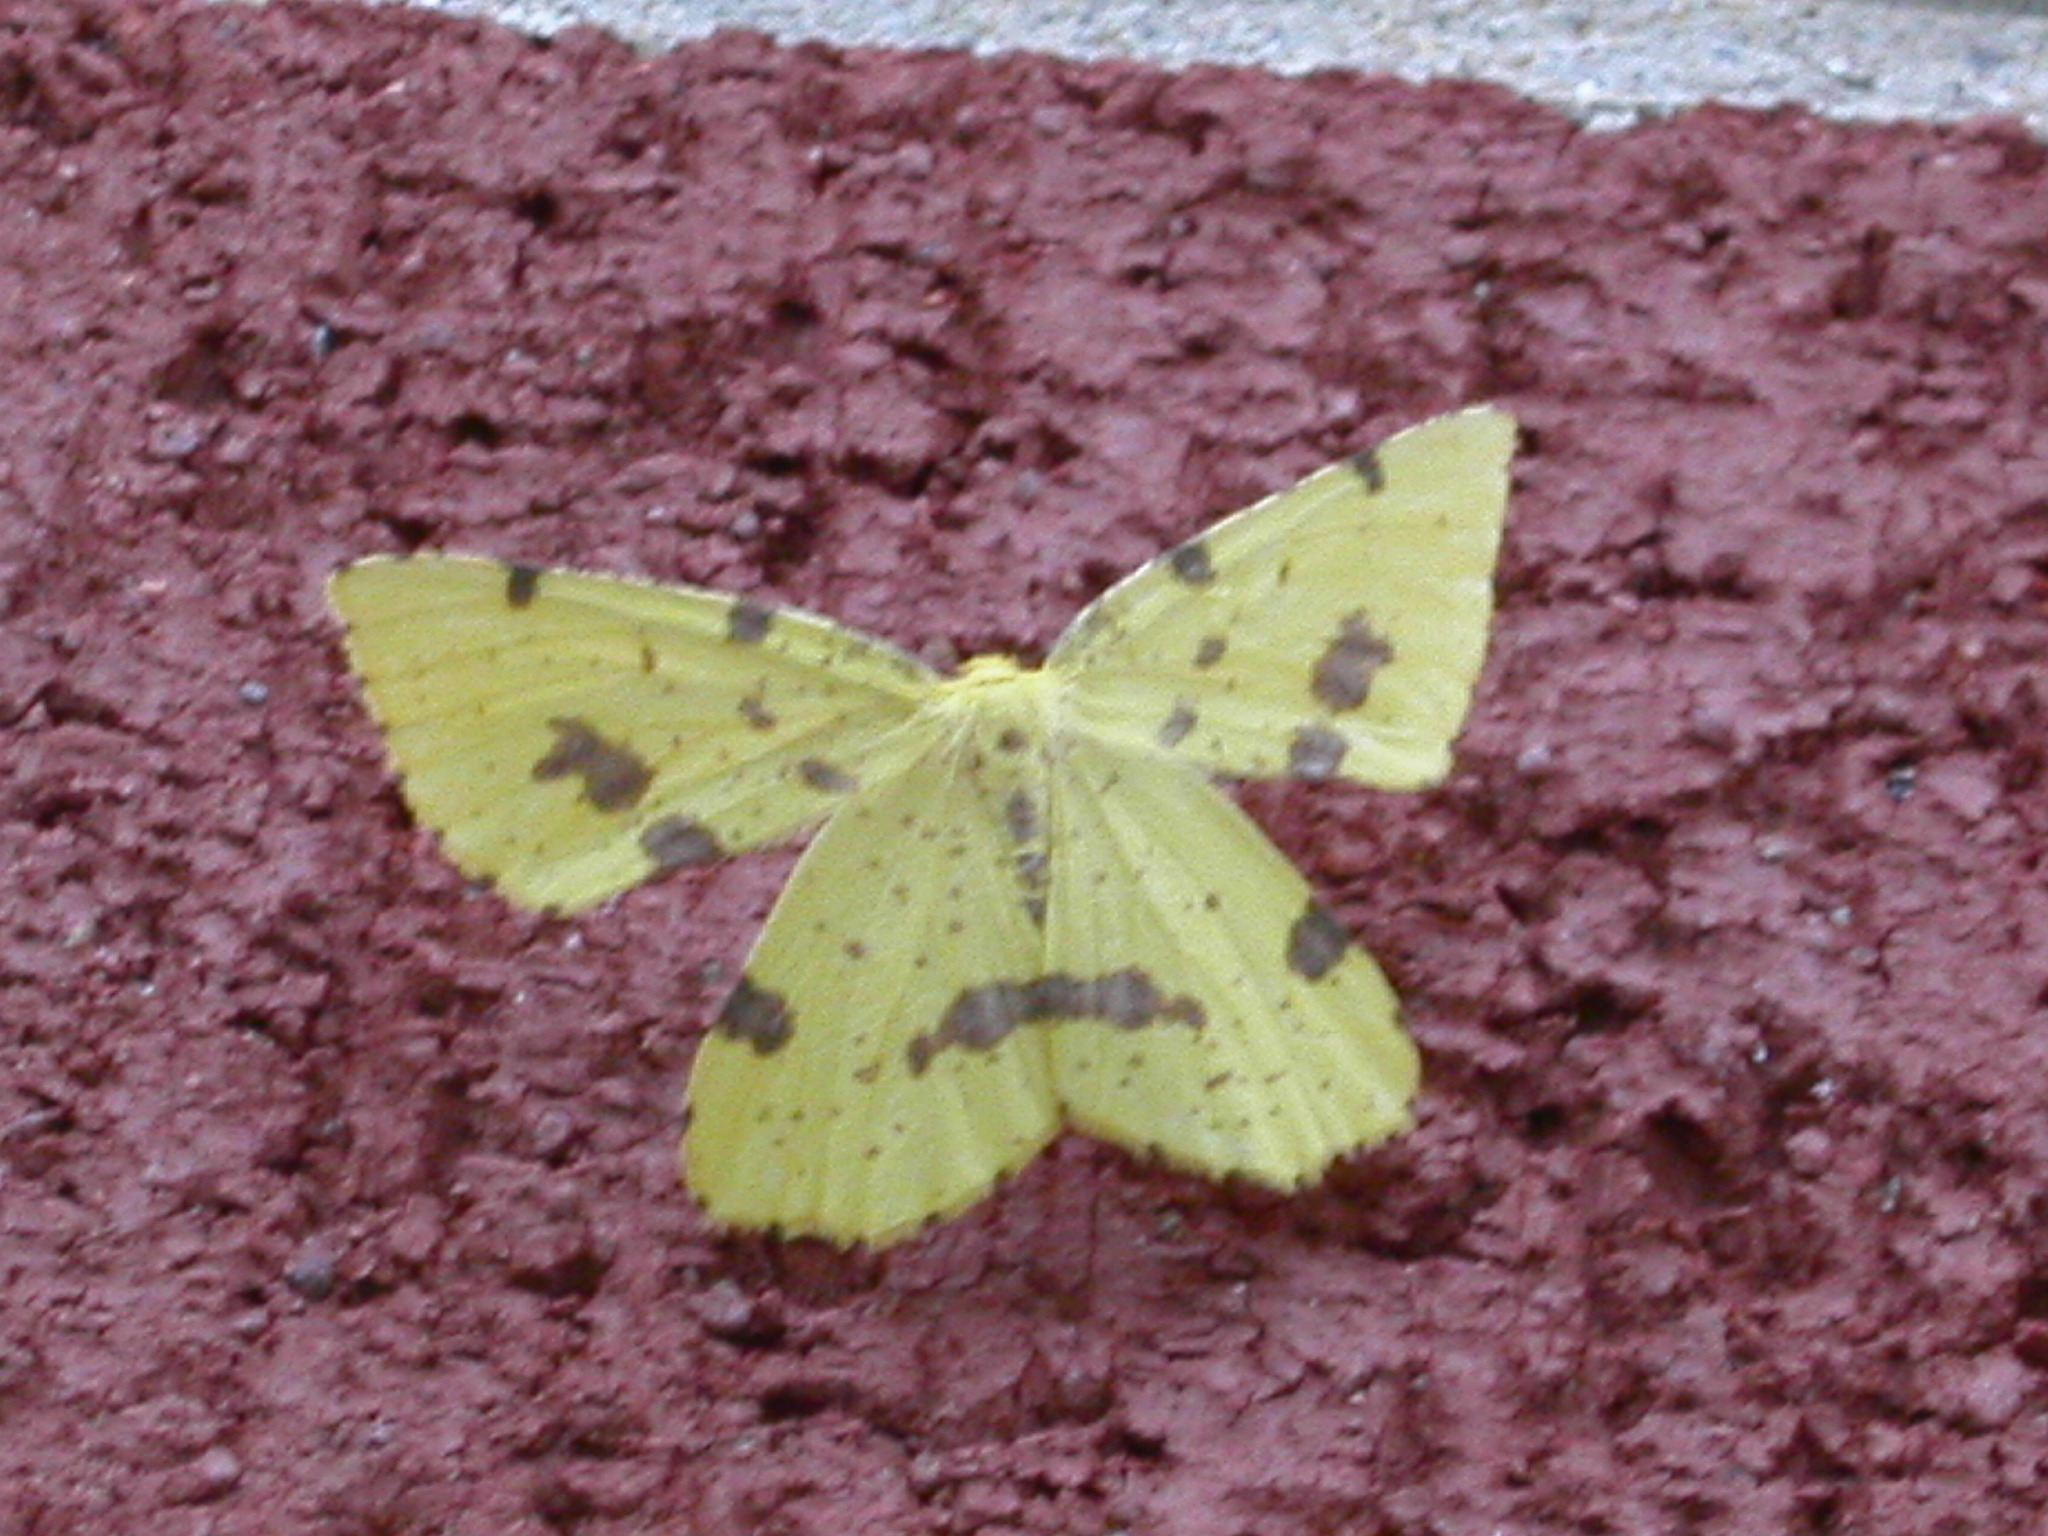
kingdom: Animalia
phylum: Arthropoda
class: Insecta
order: Lepidoptera
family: Geometridae
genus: Xanthotype
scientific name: Xanthotype
